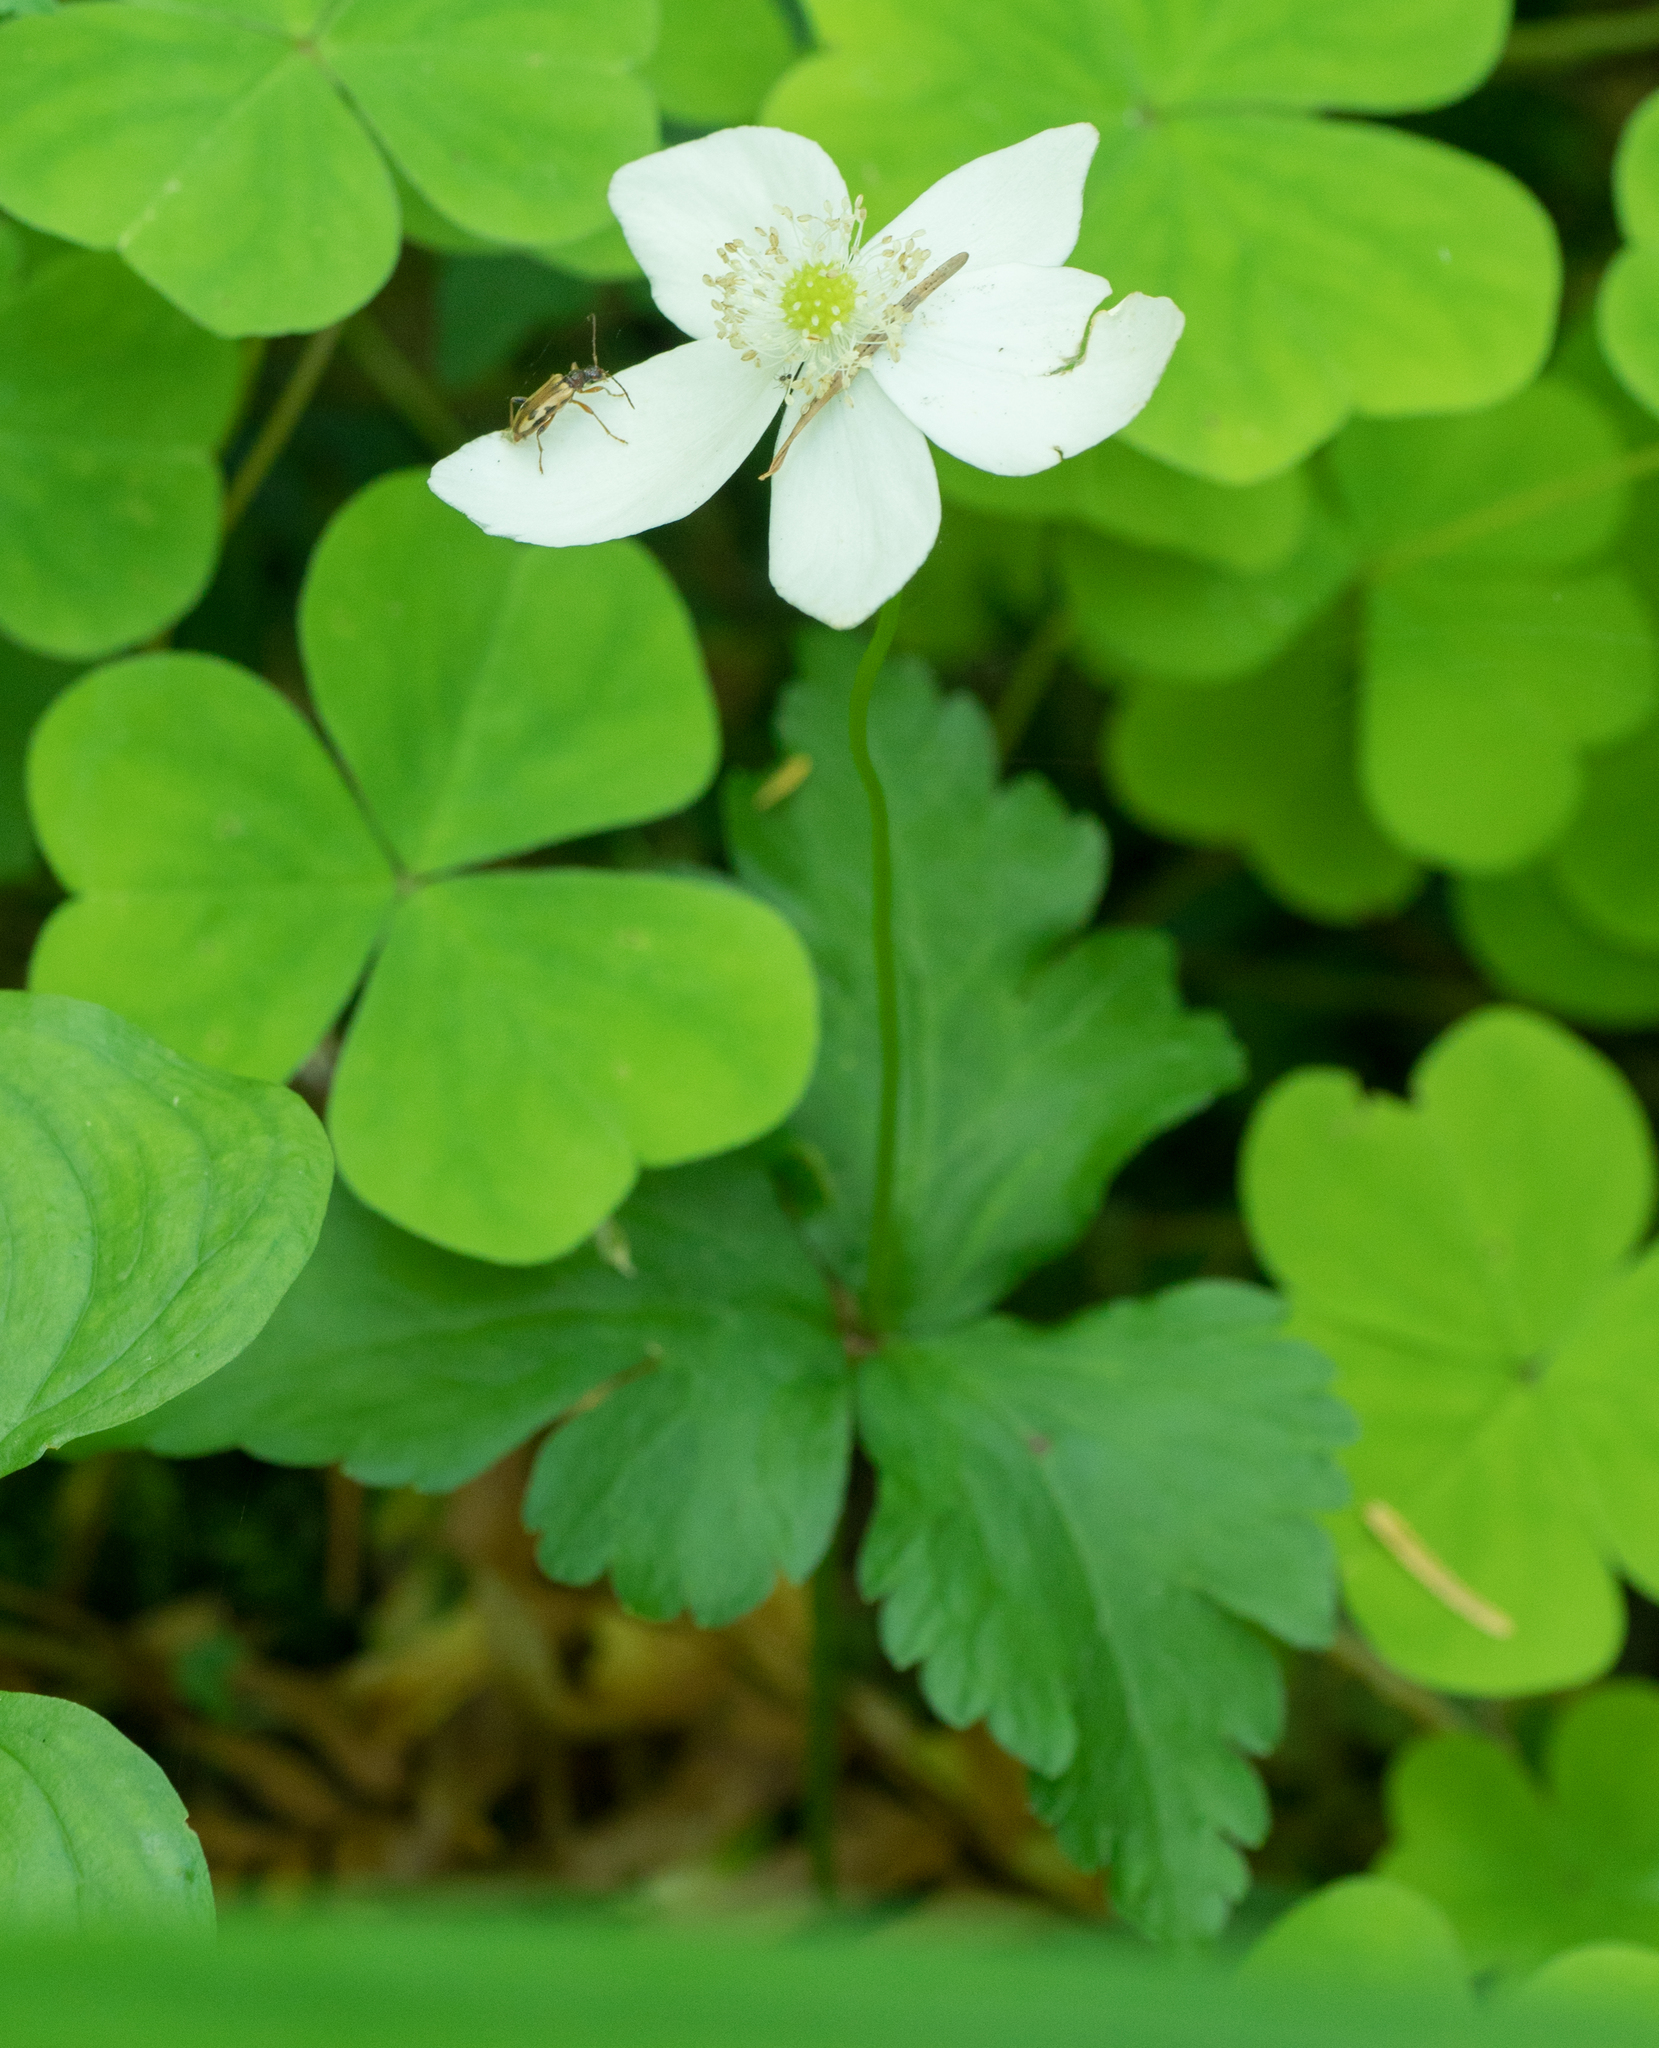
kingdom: Plantae
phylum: Tracheophyta
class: Magnoliopsida
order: Ranunculales
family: Ranunculaceae
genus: Anemonastrum
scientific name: Anemonastrum deltoideum
